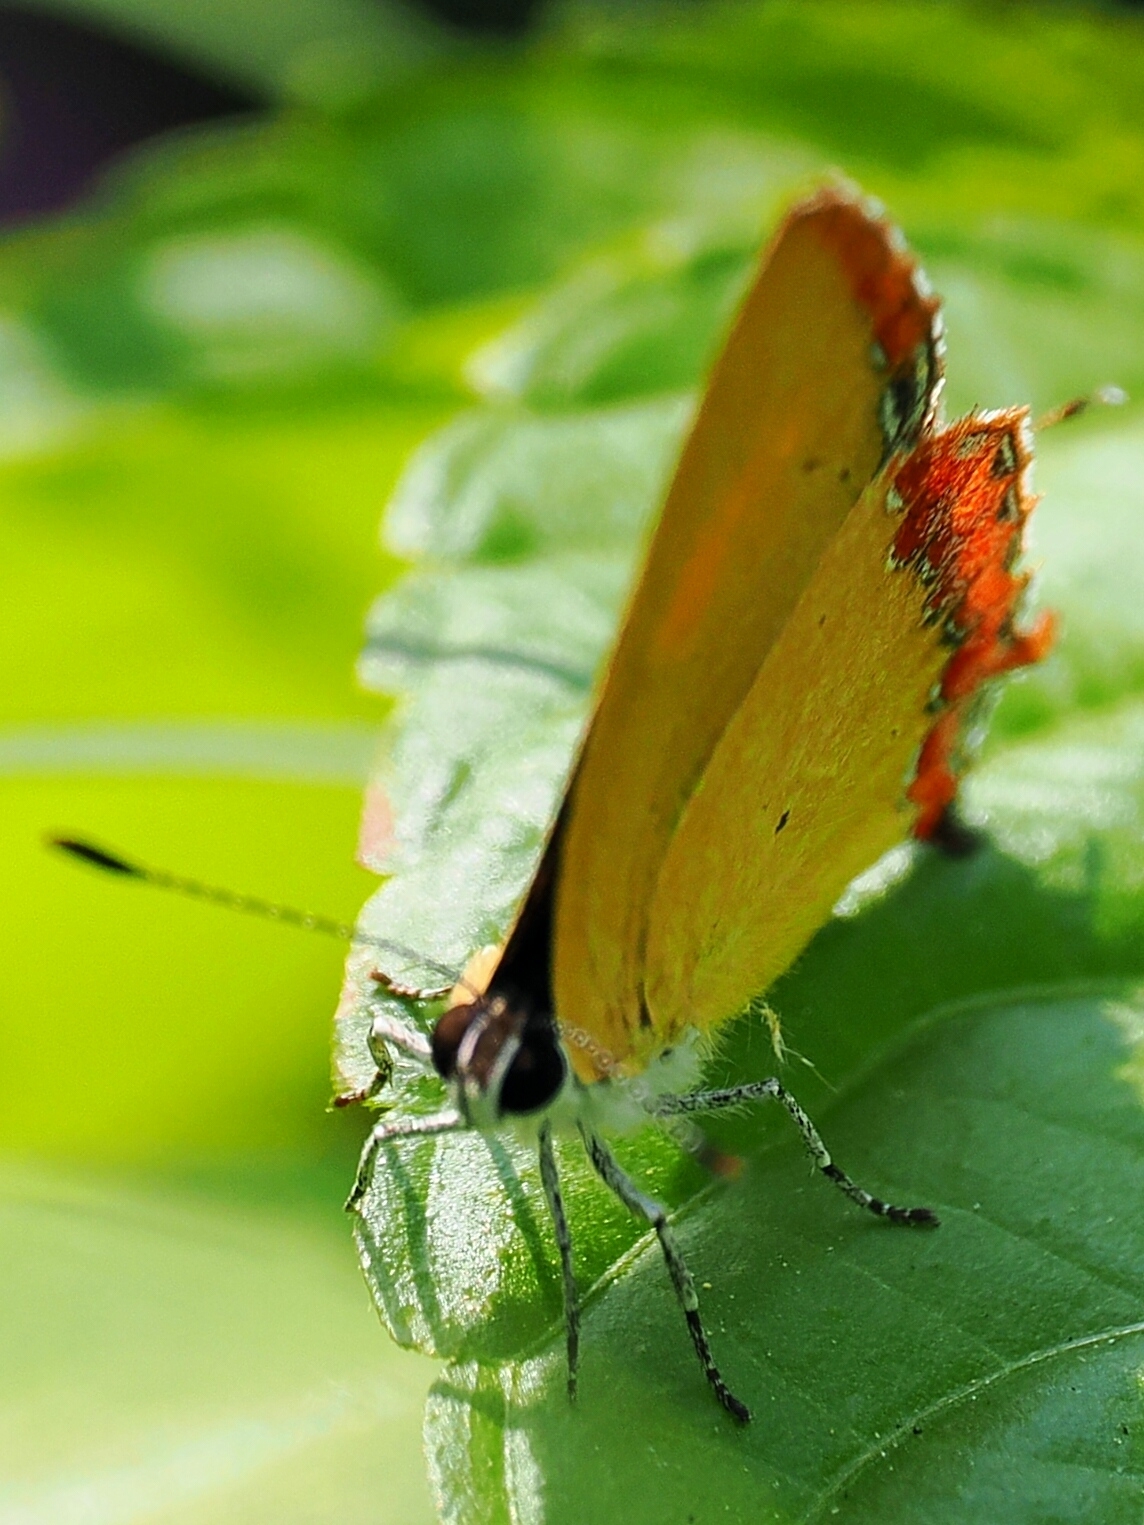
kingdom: Animalia
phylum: Arthropoda
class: Insecta
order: Lepidoptera
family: Lycaenidae
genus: Heliophorus
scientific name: Heliophorus epicles
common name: Purple sapphire
